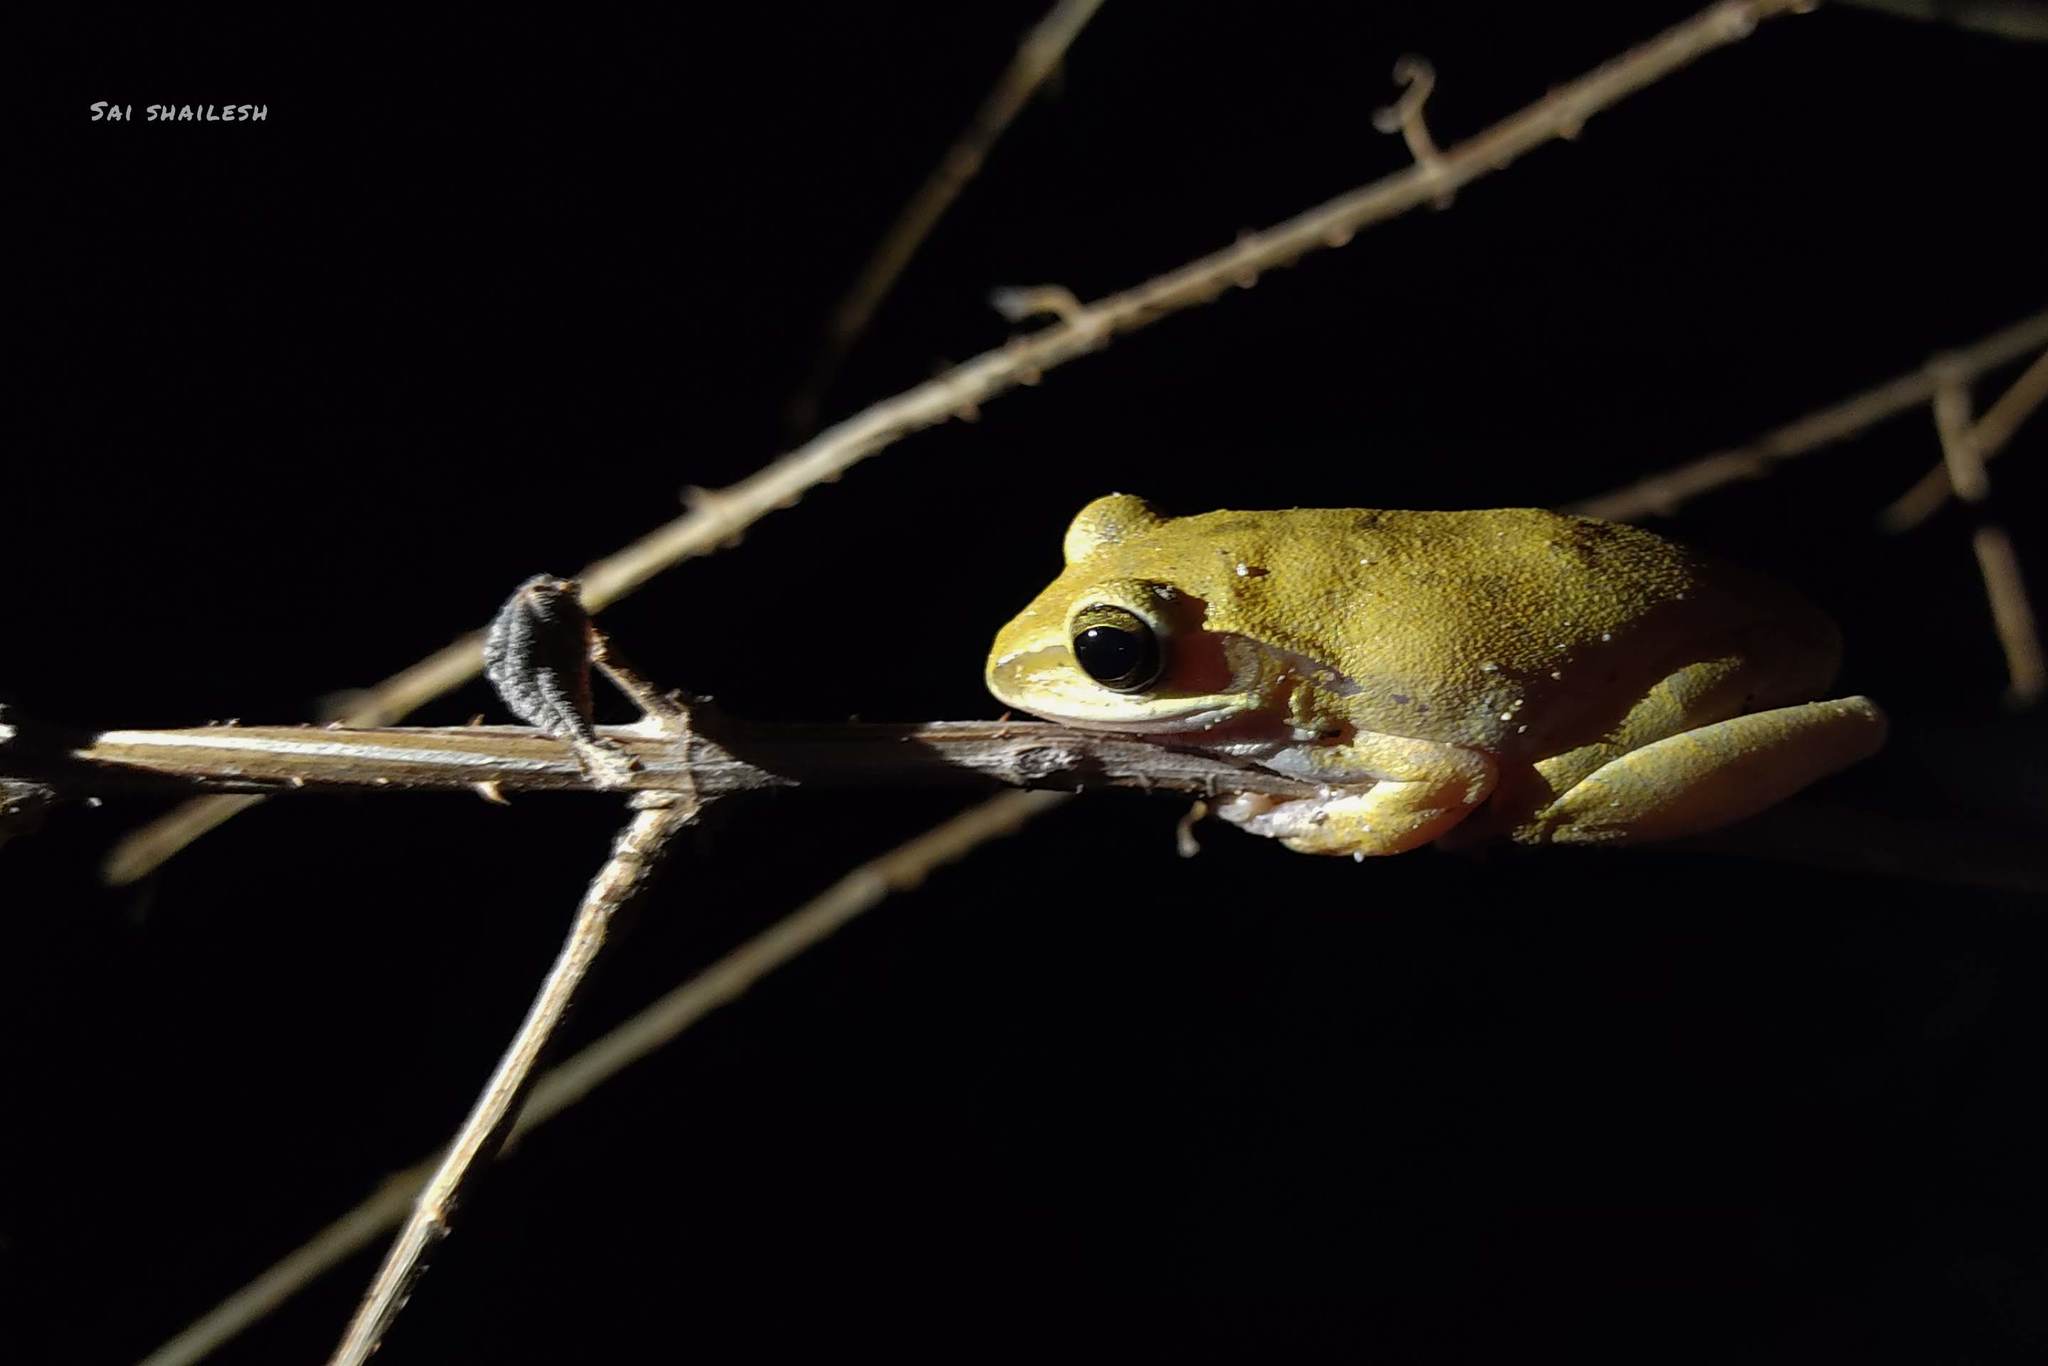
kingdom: Animalia
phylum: Chordata
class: Amphibia
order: Anura
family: Rhacophoridae
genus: Polypedates
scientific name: Polypedates maculatus
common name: Himalayan tree frog
